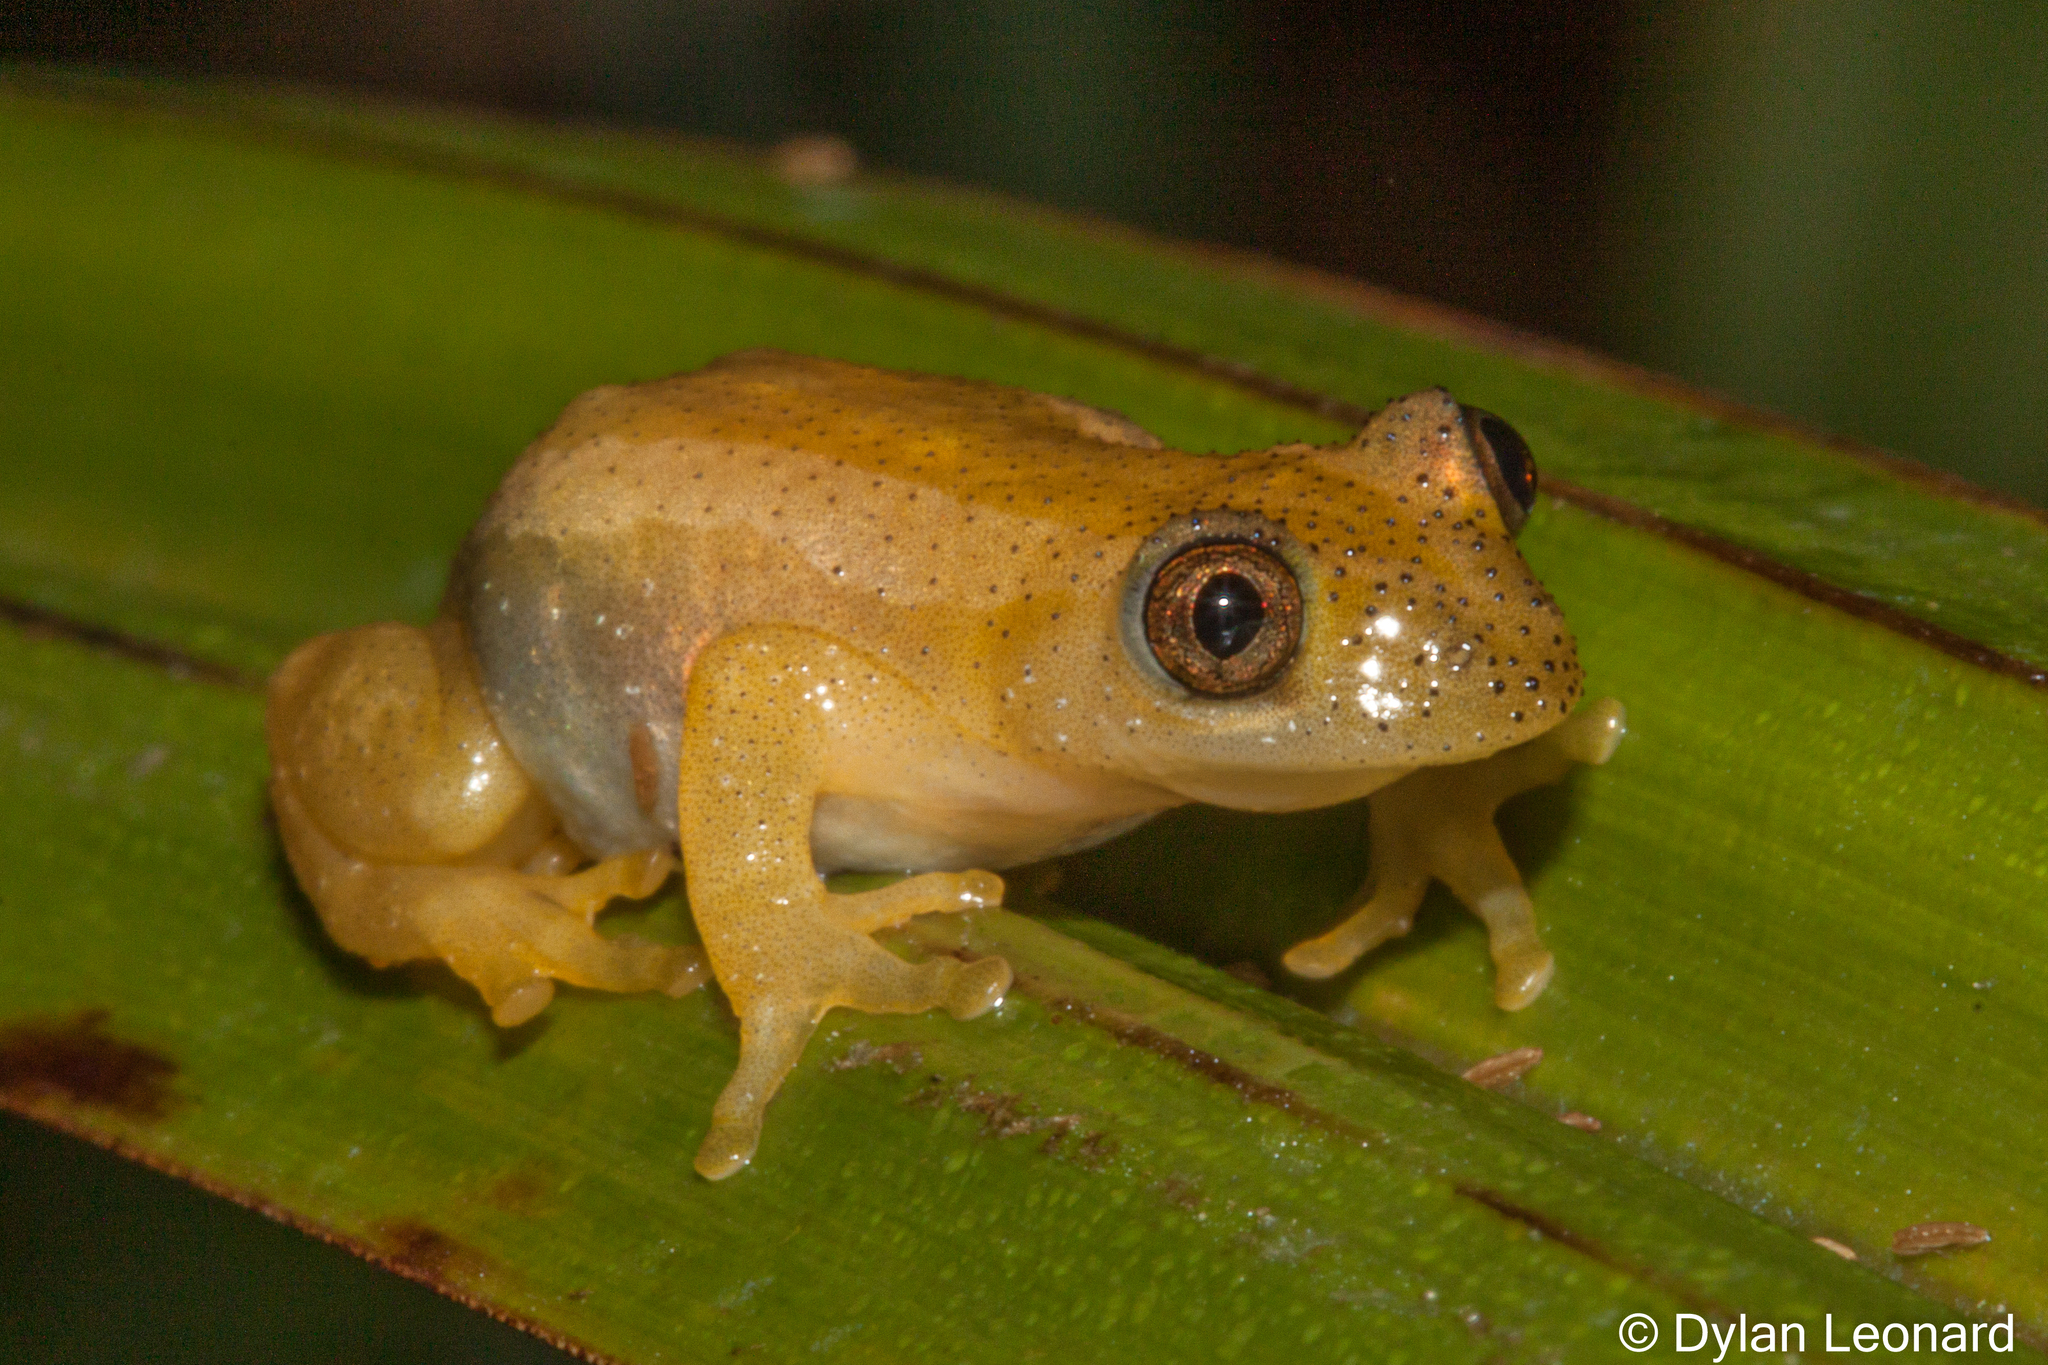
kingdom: Animalia
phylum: Chordata
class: Amphibia
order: Anura
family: Hyperoliidae
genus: Afrixalus
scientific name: Afrixalus spinifrons
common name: Natal spiny reed frog
